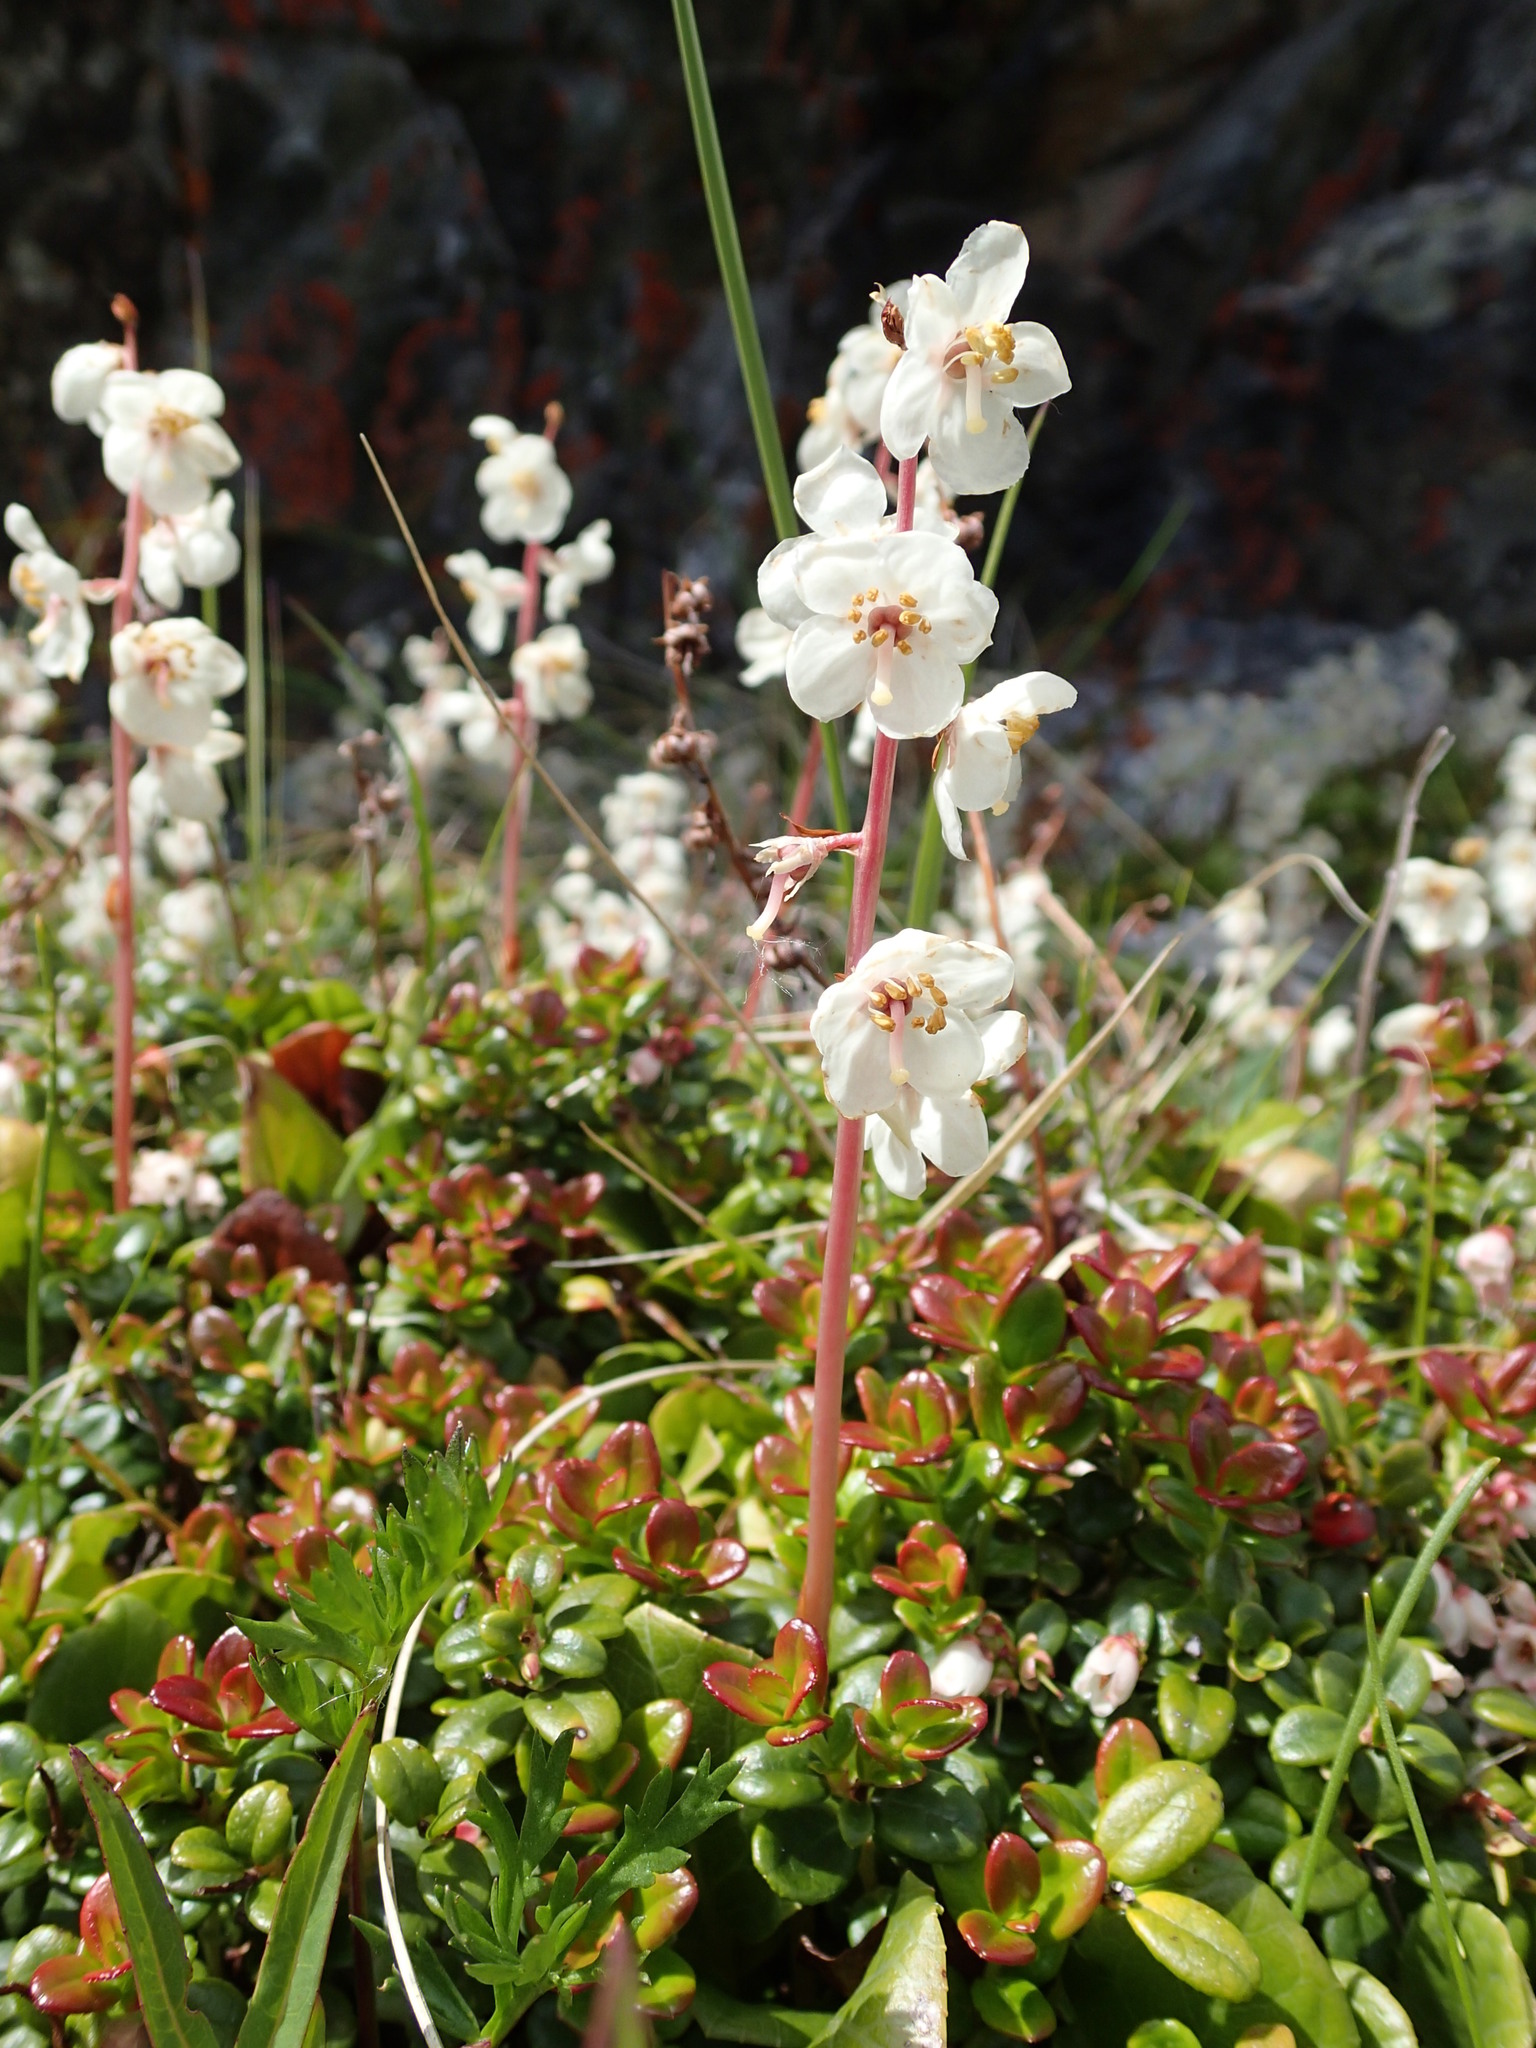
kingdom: Plantae
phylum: Tracheophyta
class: Magnoliopsida
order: Ericales
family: Ericaceae
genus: Pyrola
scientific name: Pyrola grandiflora
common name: Arctic pyrola
